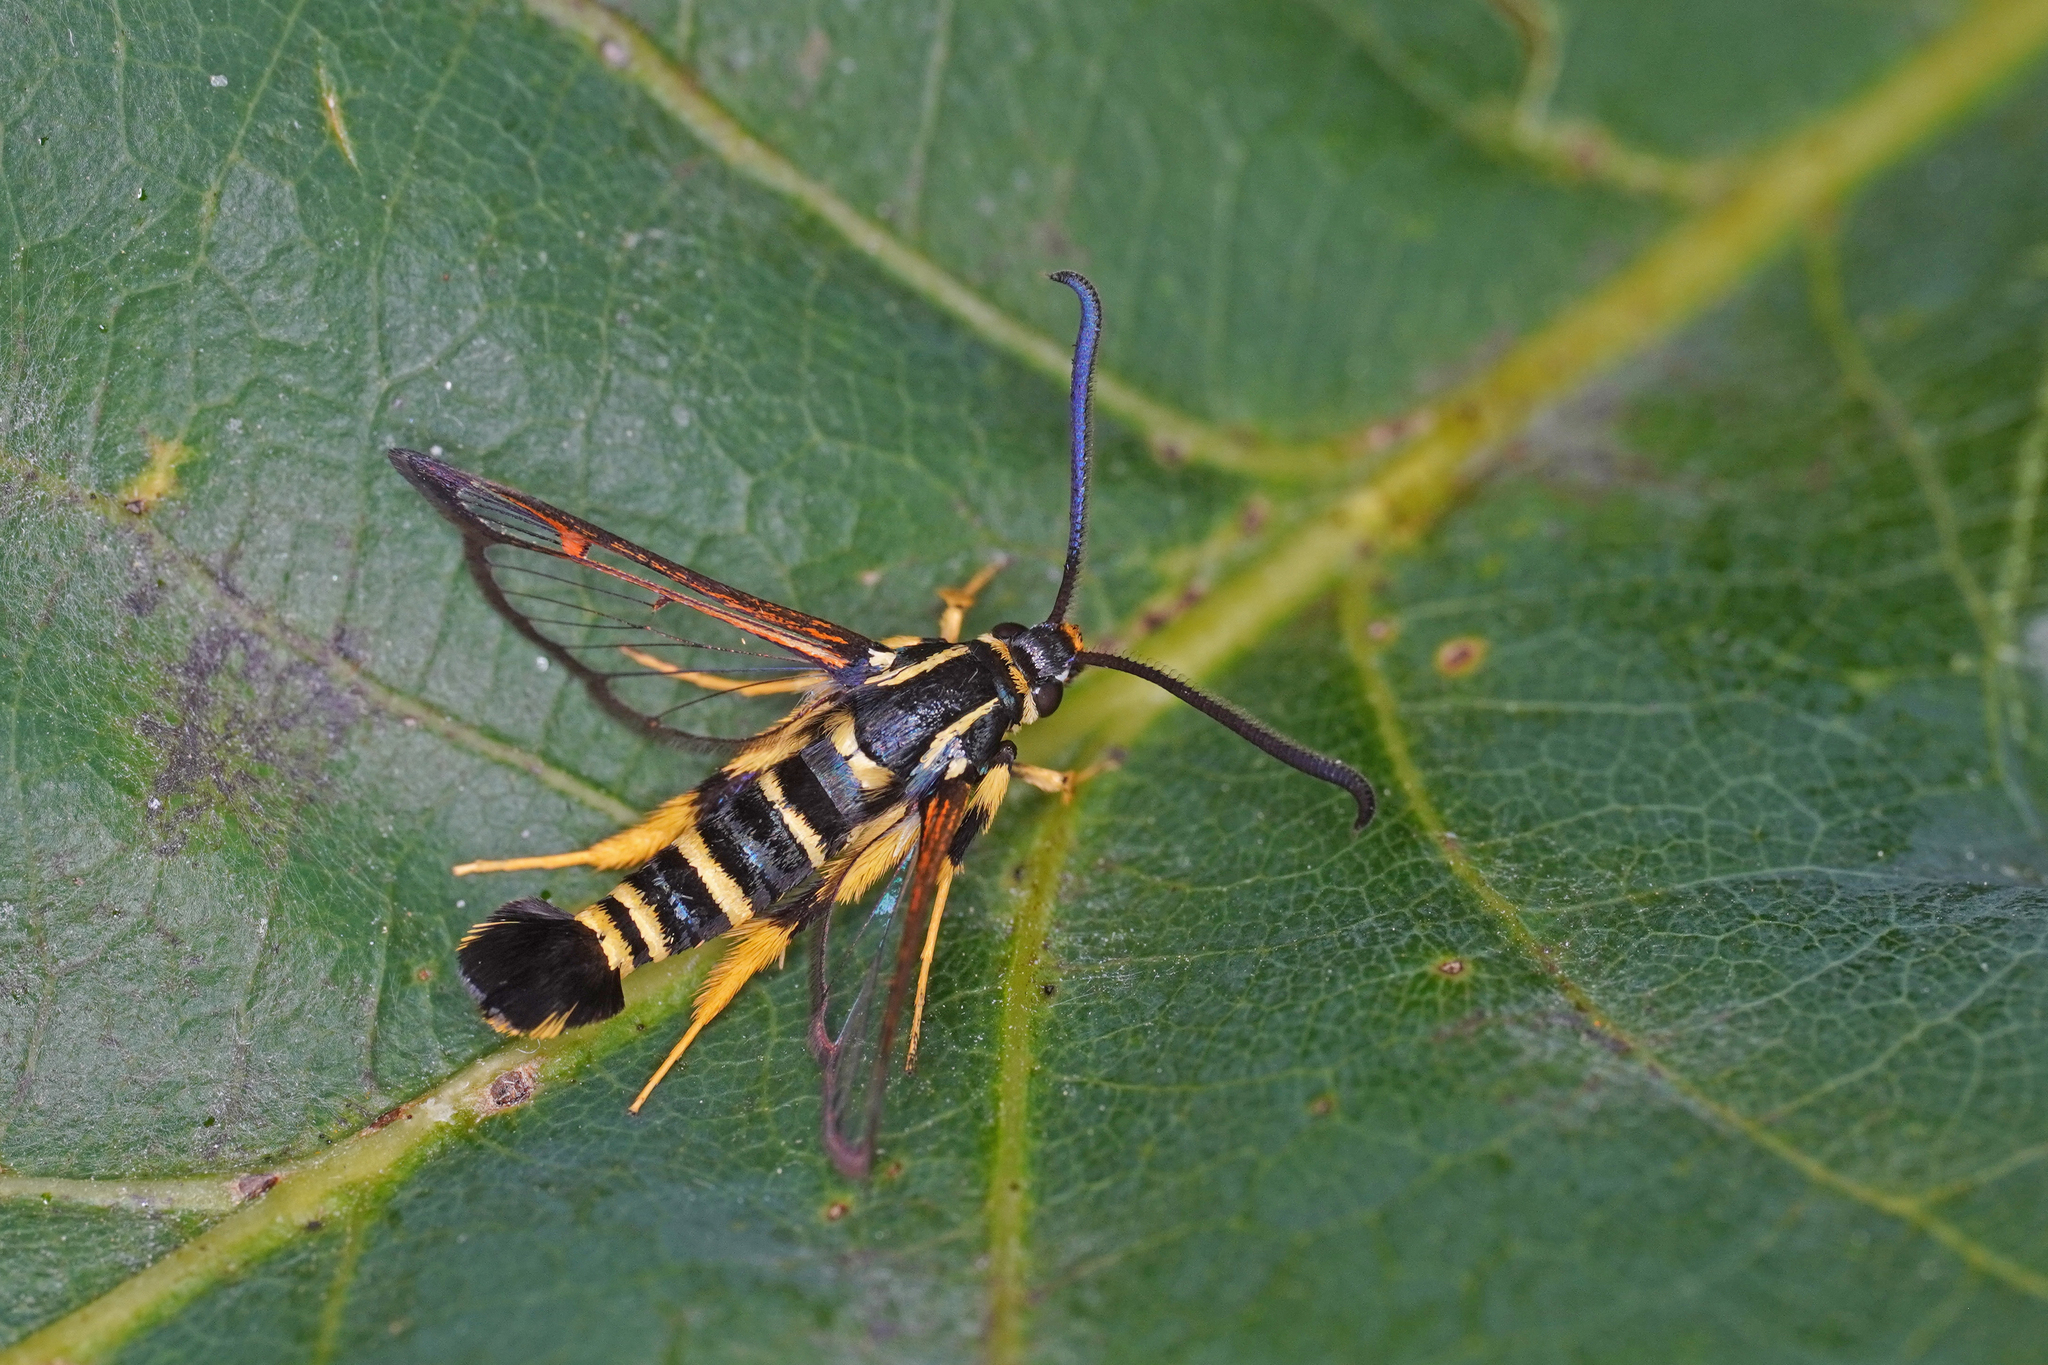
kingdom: Animalia
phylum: Arthropoda
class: Insecta
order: Lepidoptera
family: Sesiidae
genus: Synanthedon
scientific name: Synanthedon vespiformis
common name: Yellow-legged clearwing
